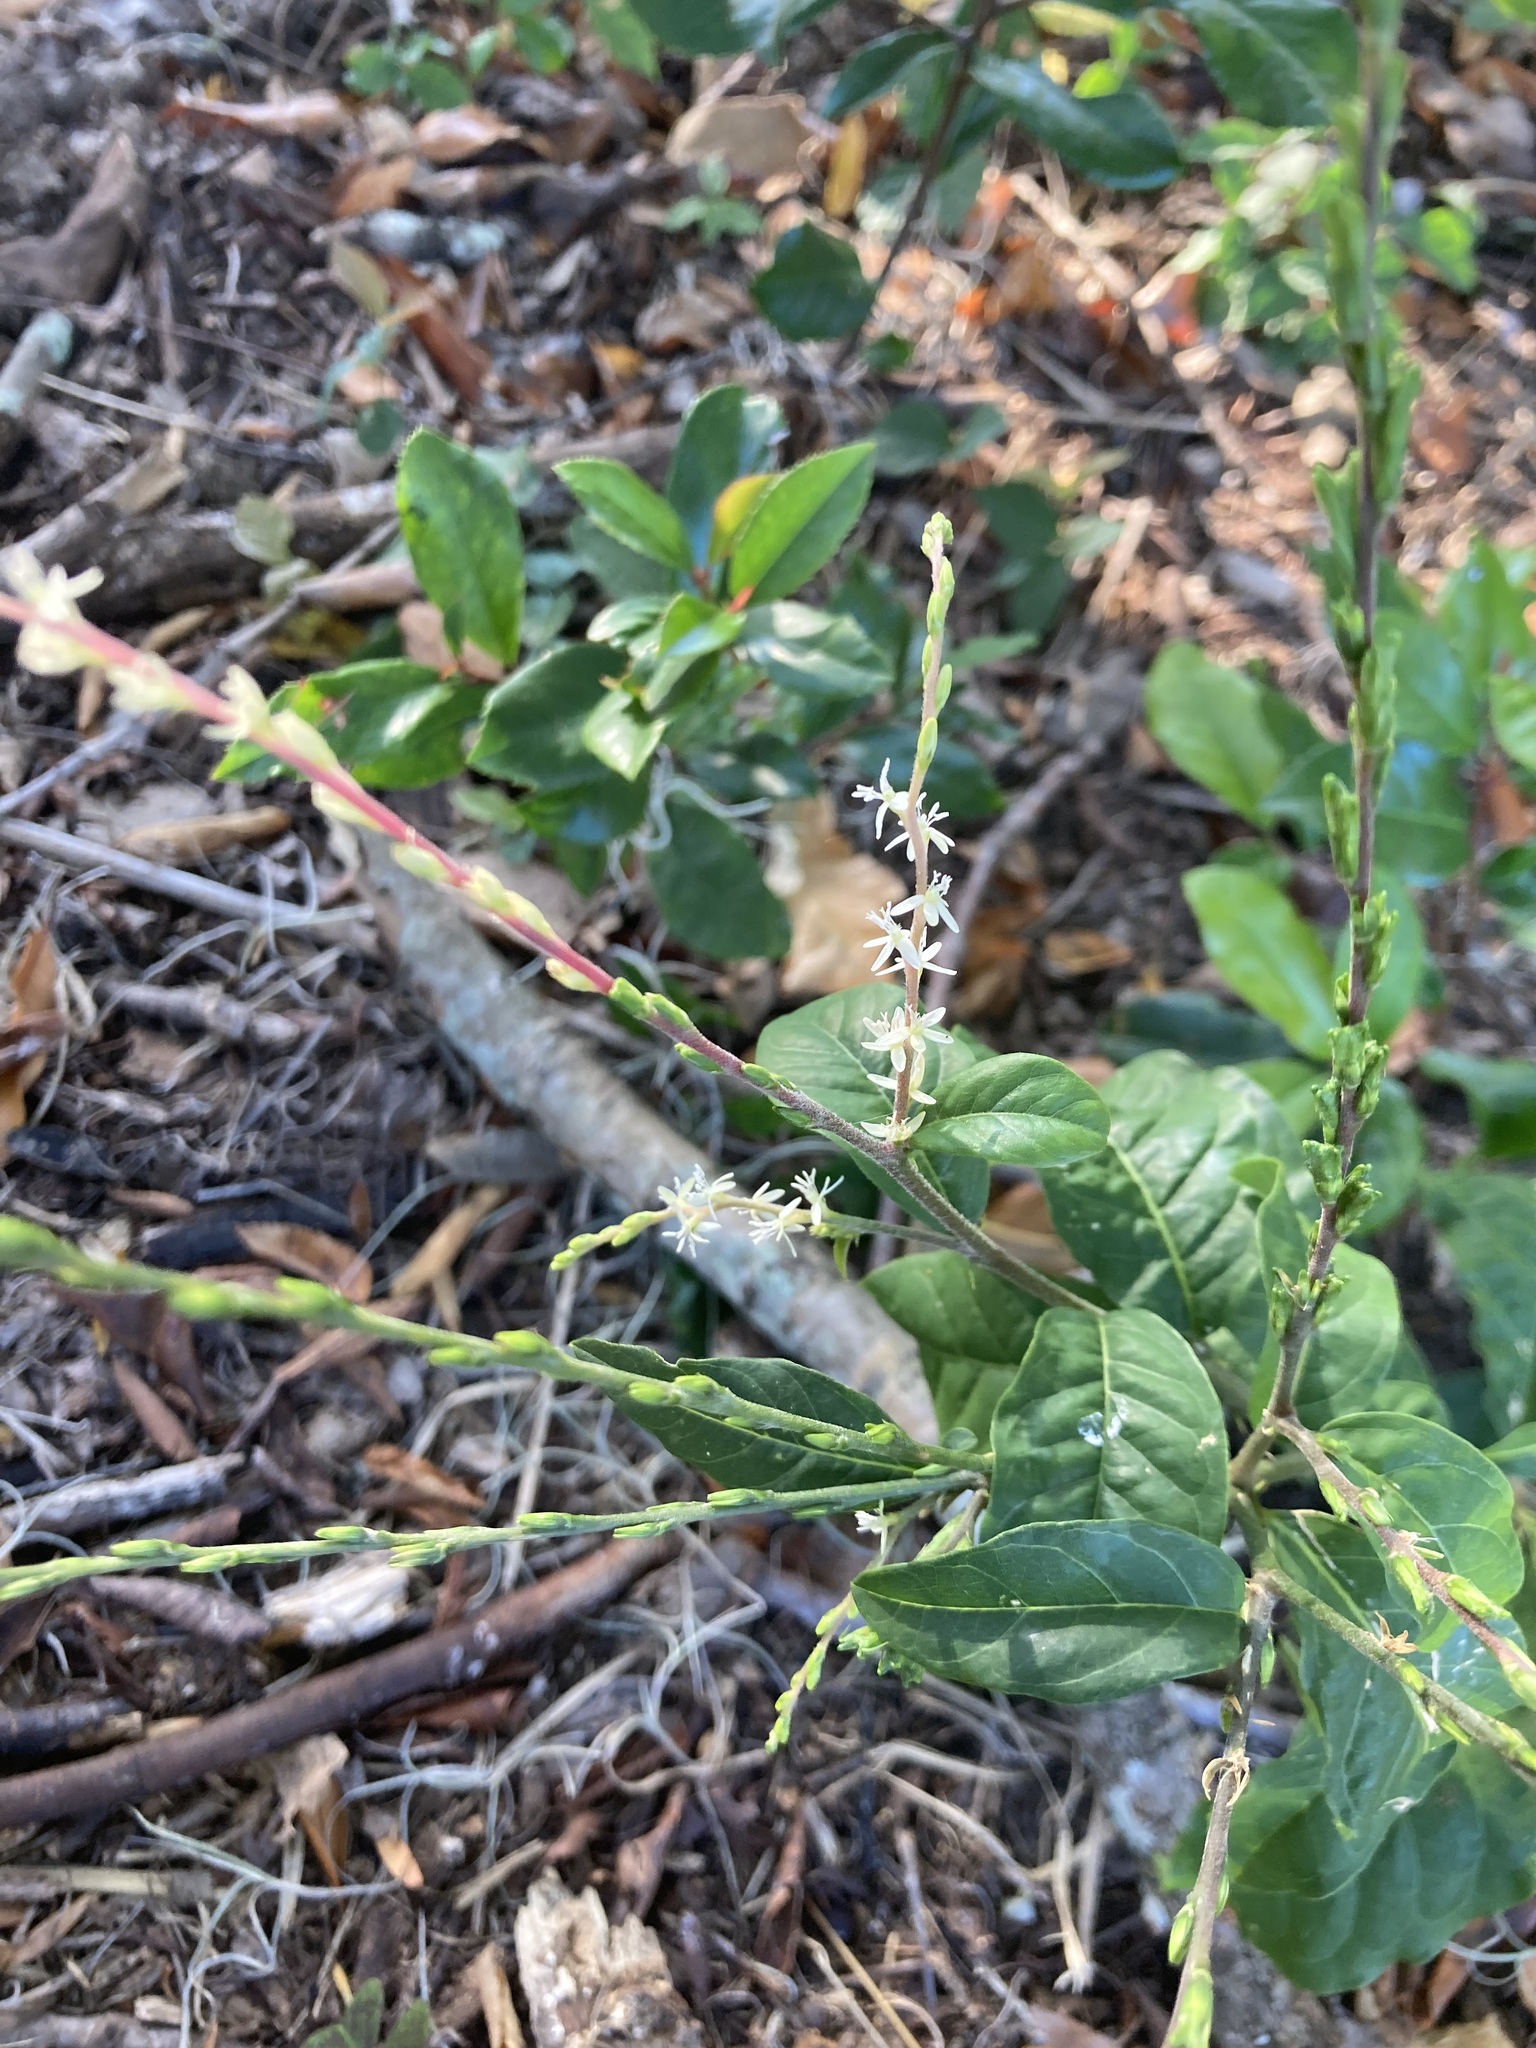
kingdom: Plantae
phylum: Tracheophyta
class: Magnoliopsida
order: Caryophyllales
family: Phytolaccaceae
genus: Petiveria
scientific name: Petiveria alliacea
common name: Garlicweed
